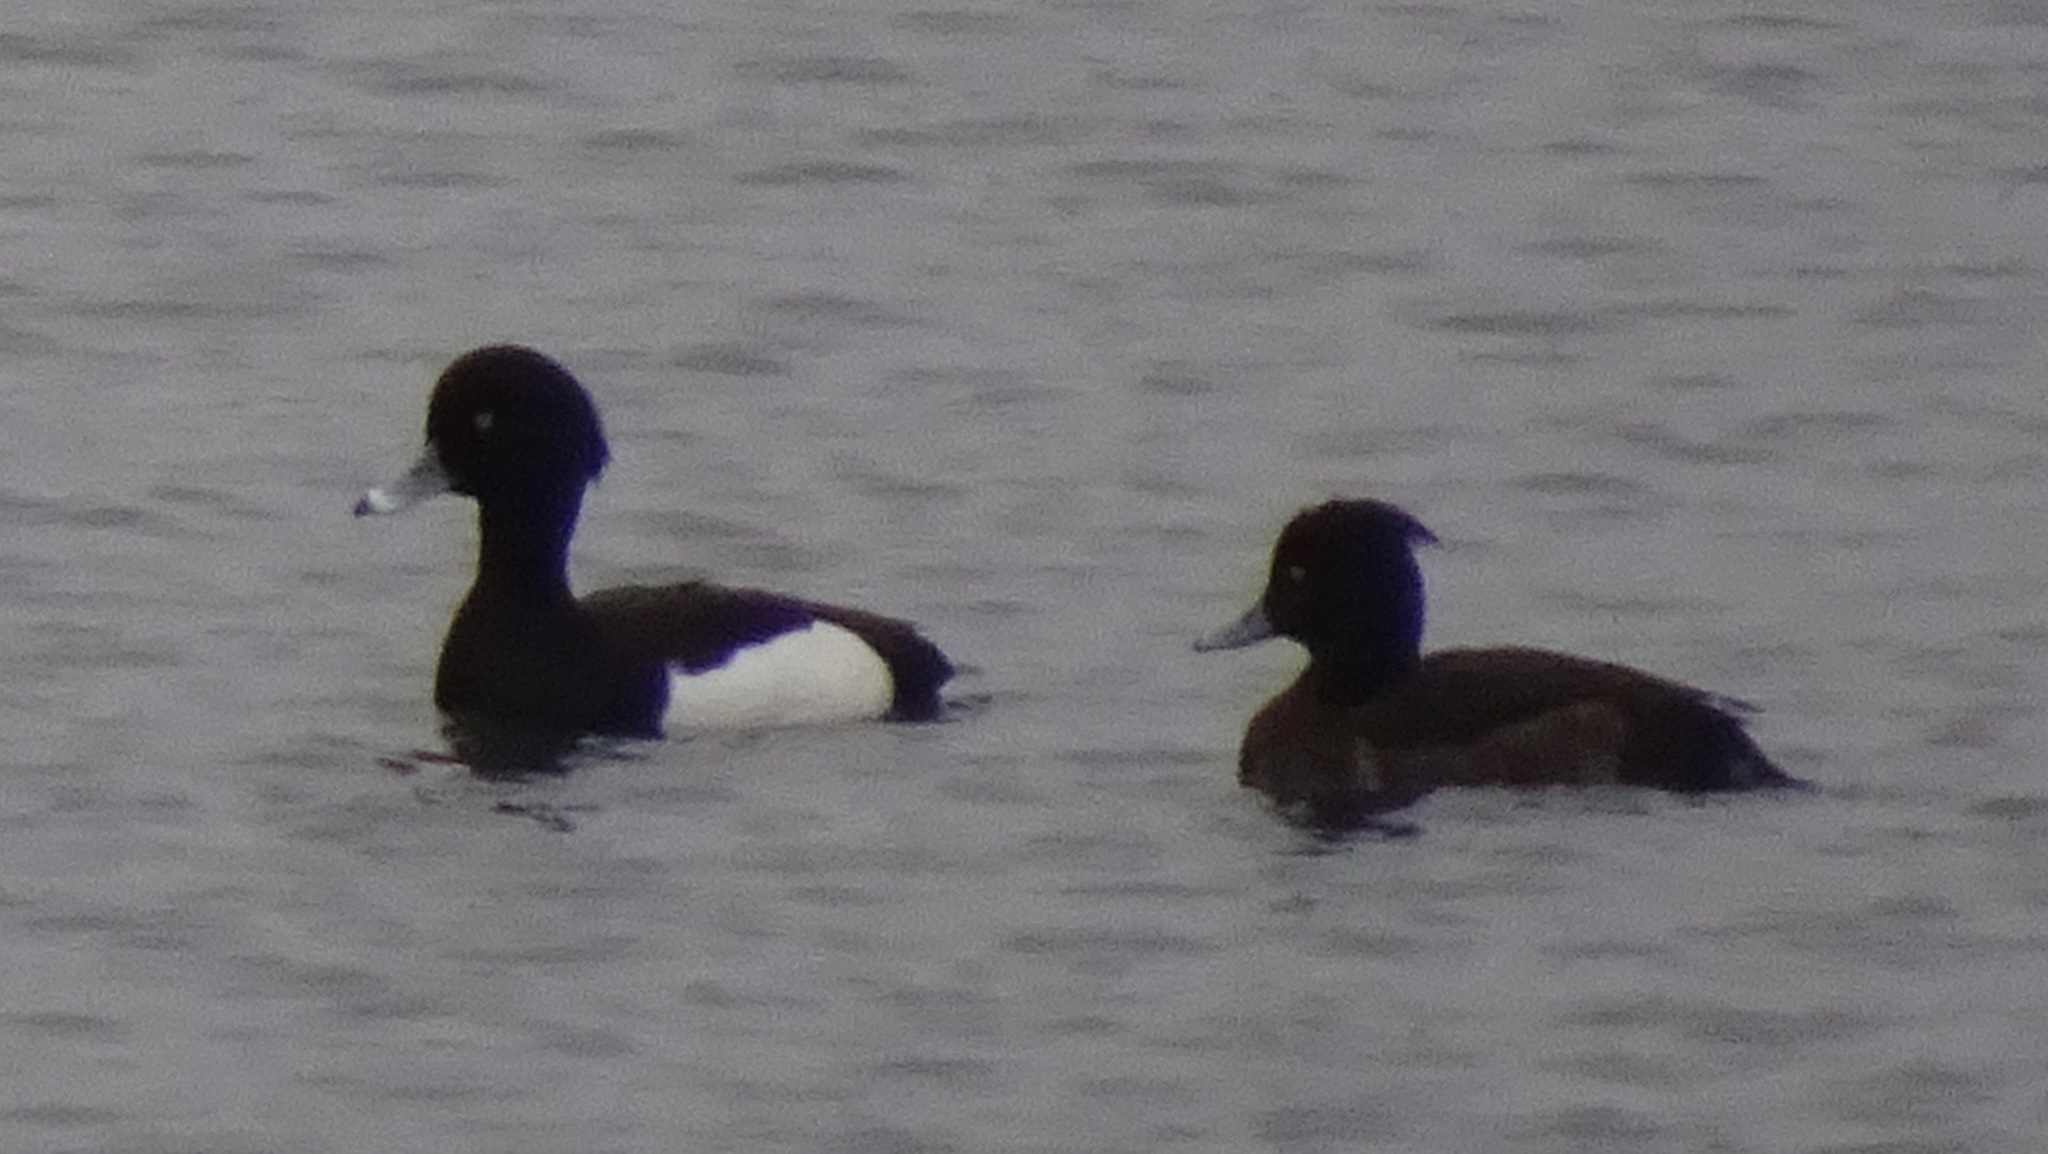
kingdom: Animalia
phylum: Chordata
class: Aves
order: Anseriformes
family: Anatidae
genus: Aythya
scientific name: Aythya fuligula
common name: Tufted duck
